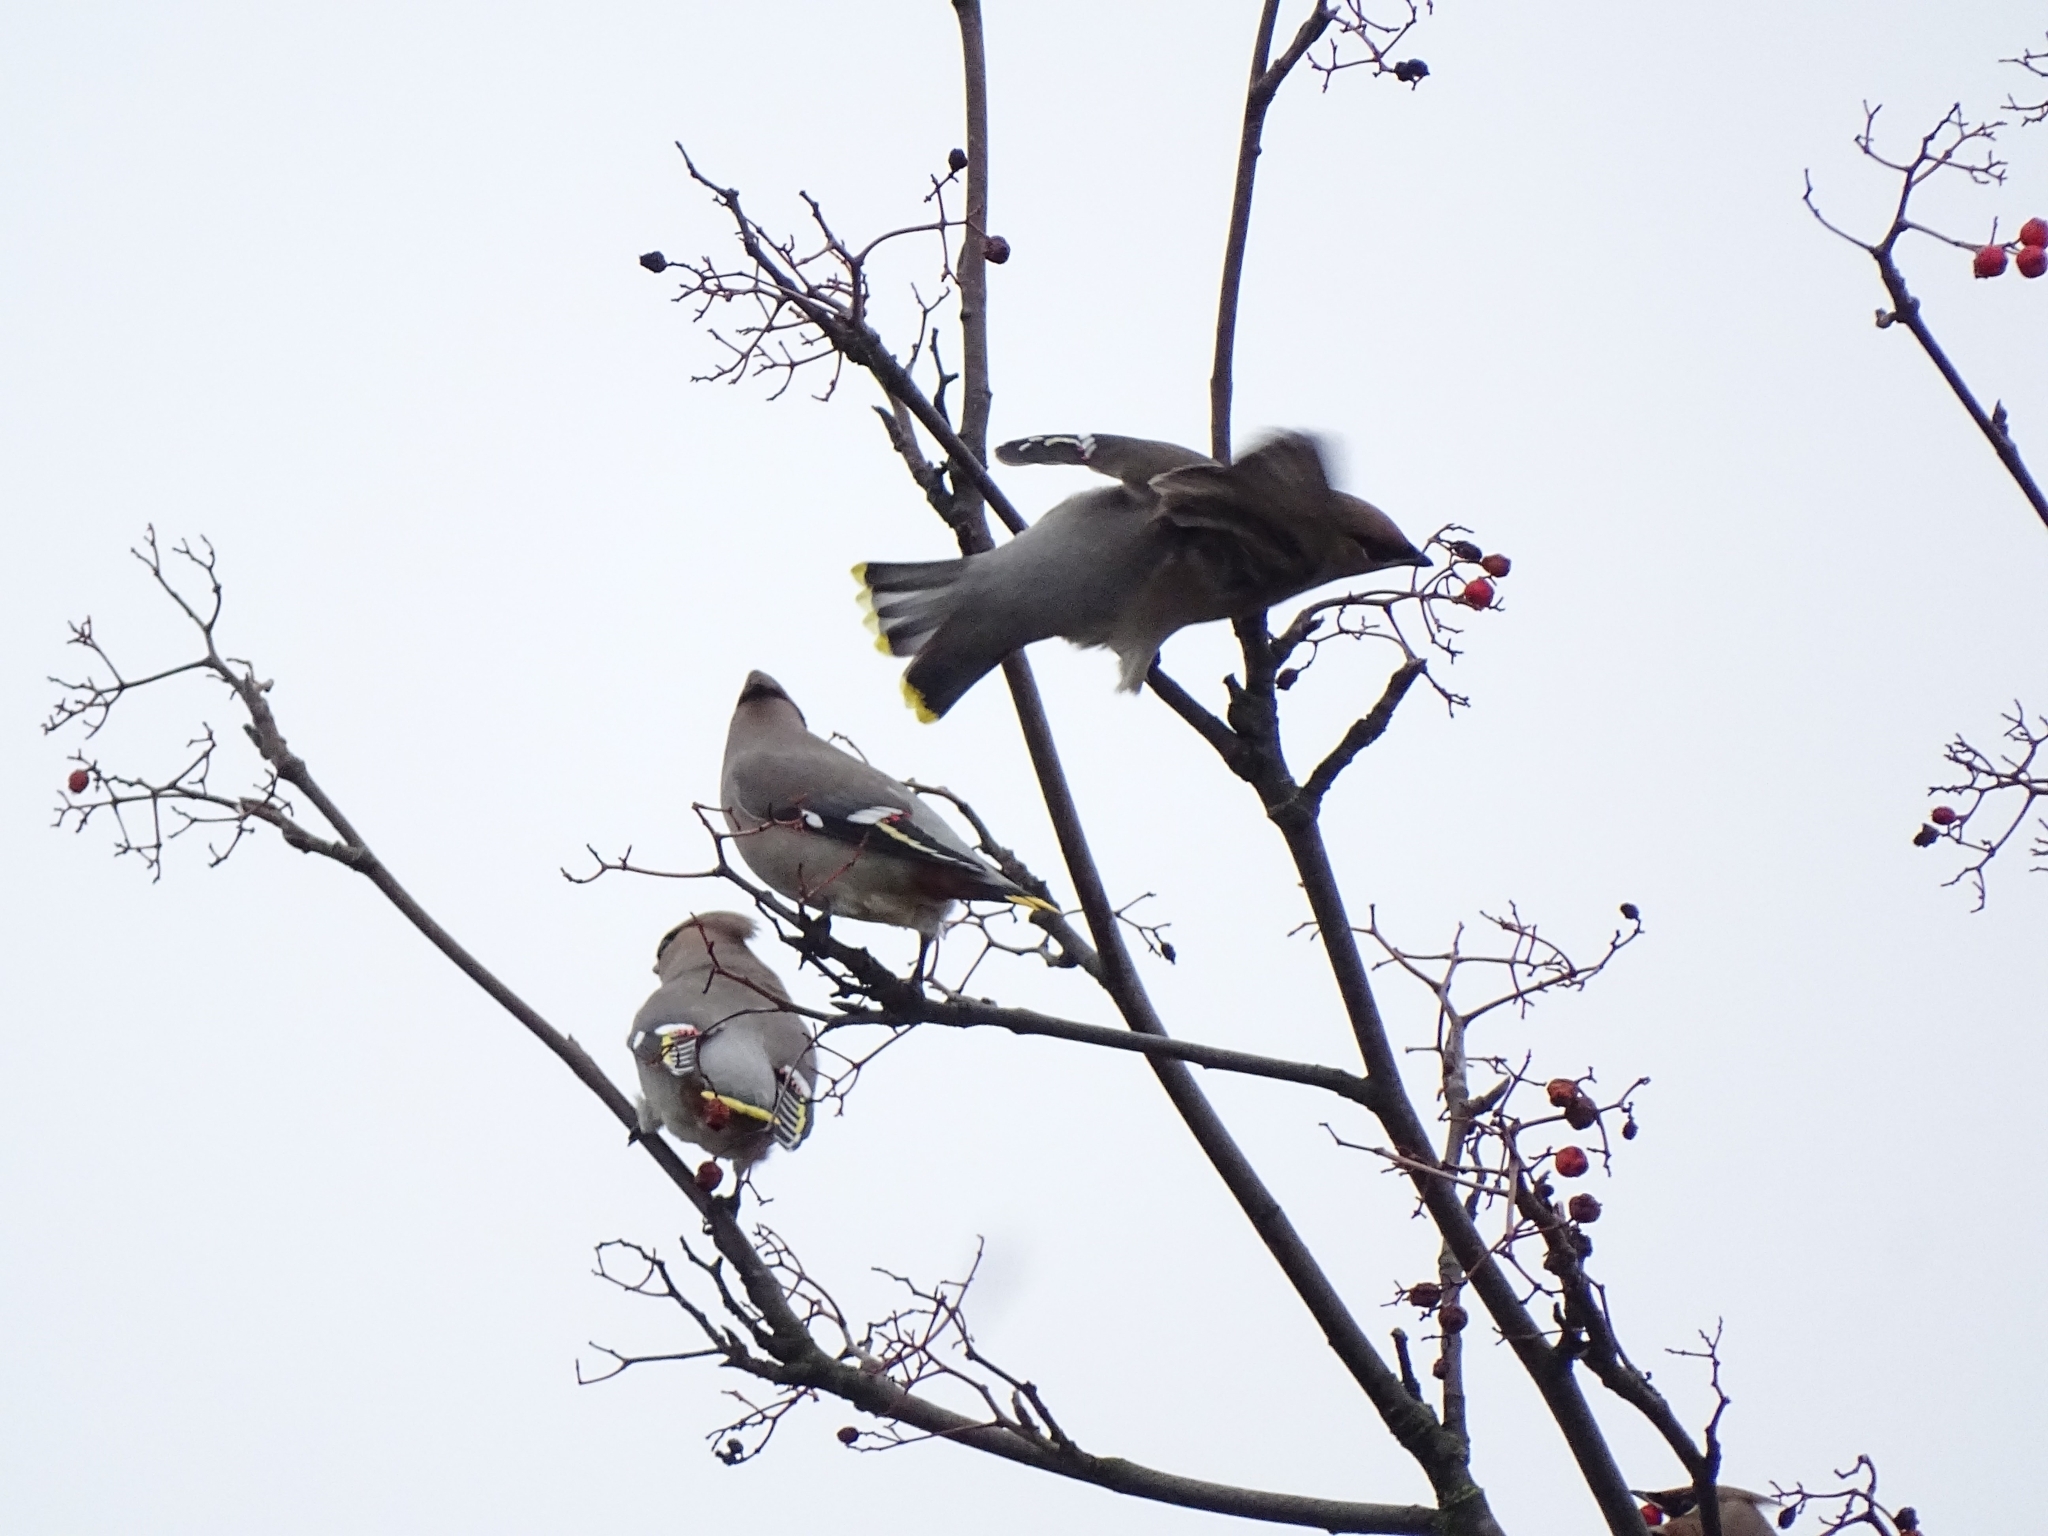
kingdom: Animalia
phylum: Chordata
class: Aves
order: Passeriformes
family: Bombycillidae
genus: Bombycilla
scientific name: Bombycilla garrulus
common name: Bohemian waxwing
